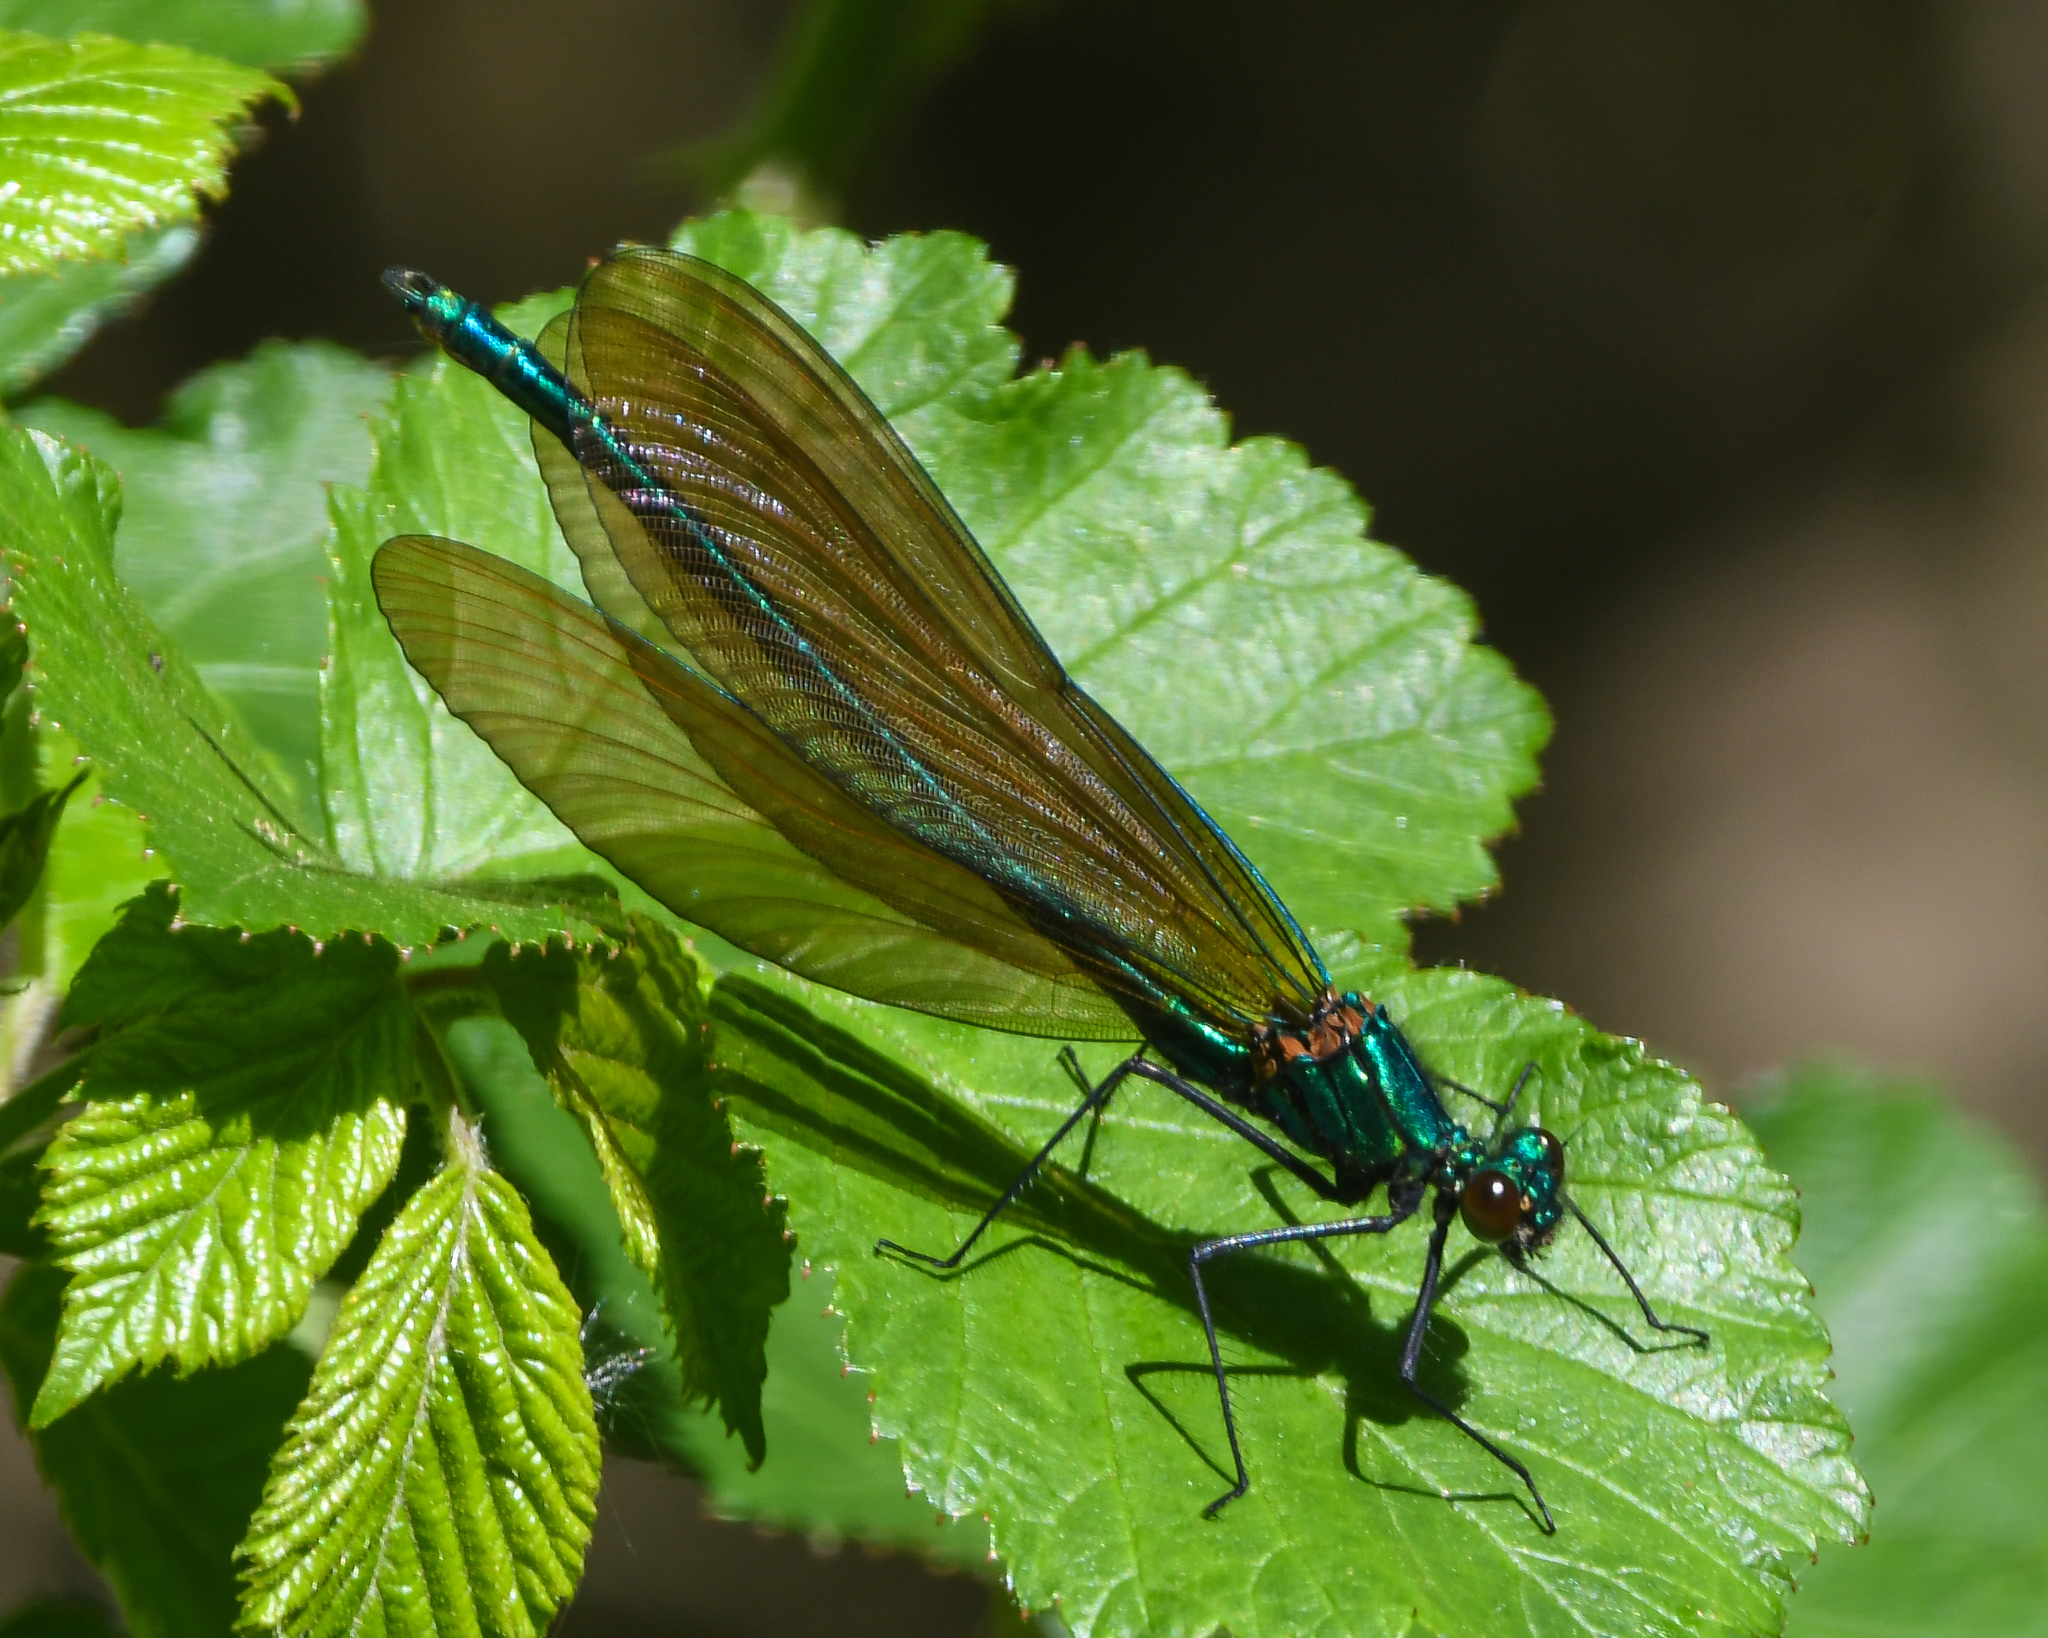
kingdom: Animalia
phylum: Arthropoda
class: Insecta
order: Odonata
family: Calopterygidae
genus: Calopteryx
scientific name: Calopteryx virgo
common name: Beautiful demoiselle
